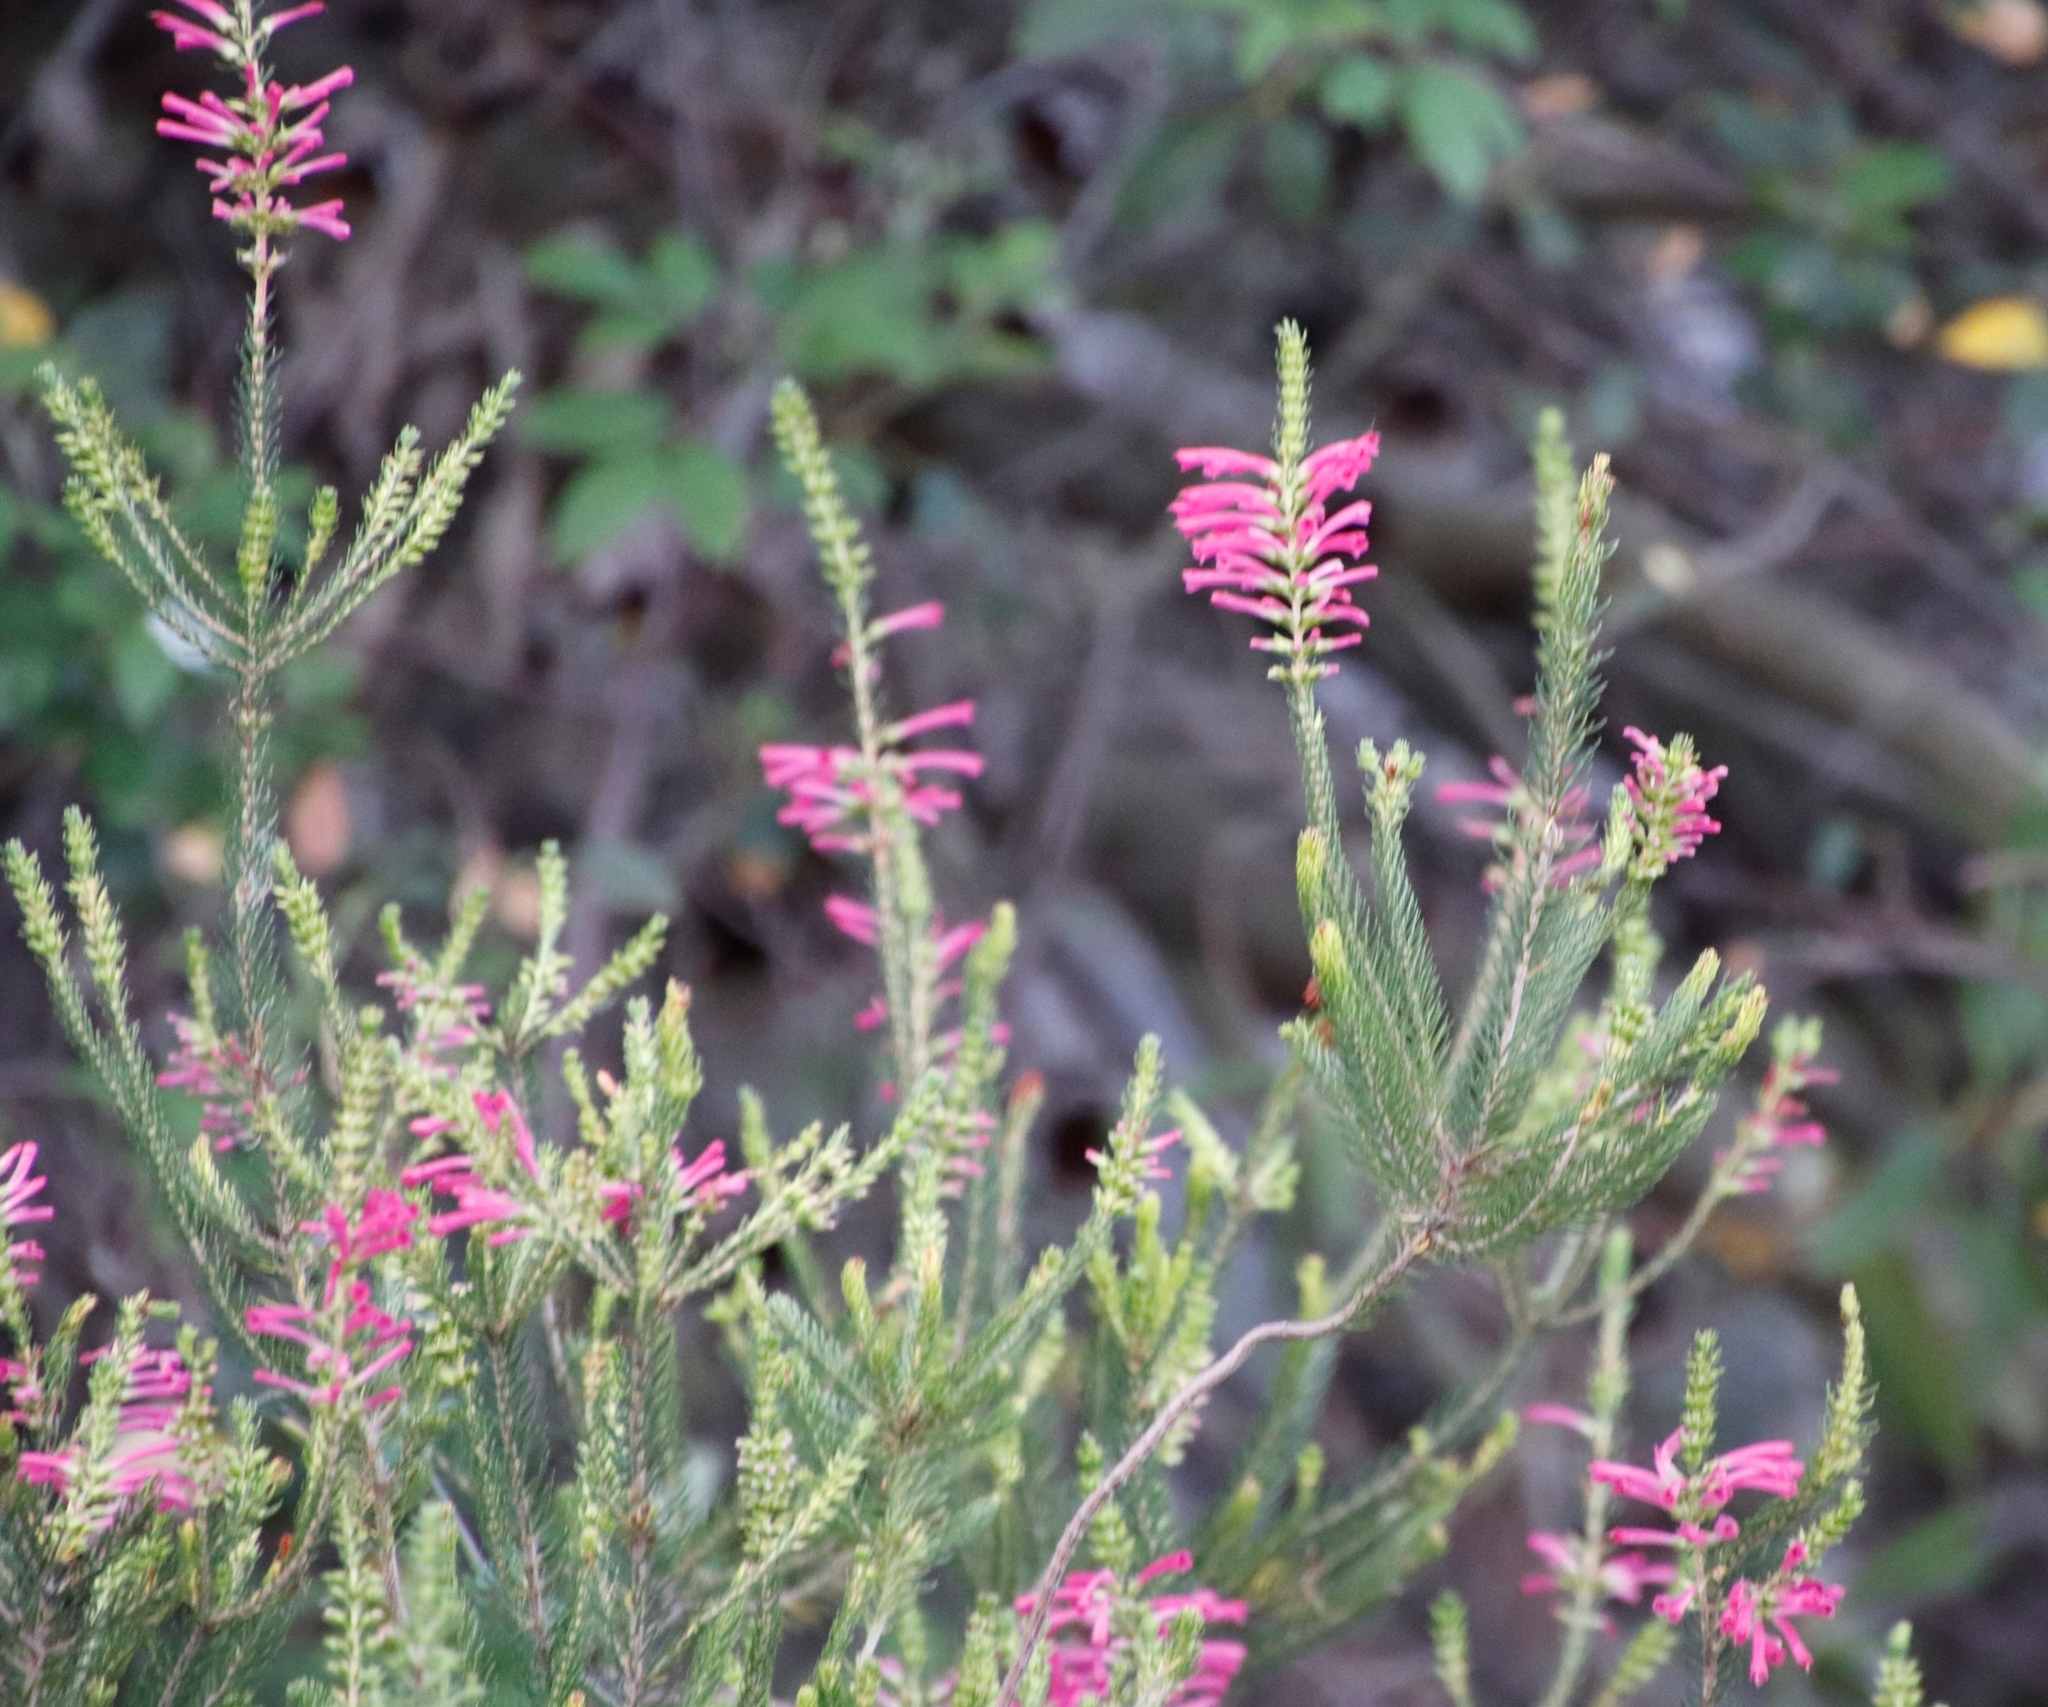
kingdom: Plantae
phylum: Tracheophyta
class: Magnoliopsida
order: Ericales
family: Ericaceae
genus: Erica
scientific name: Erica abietina
